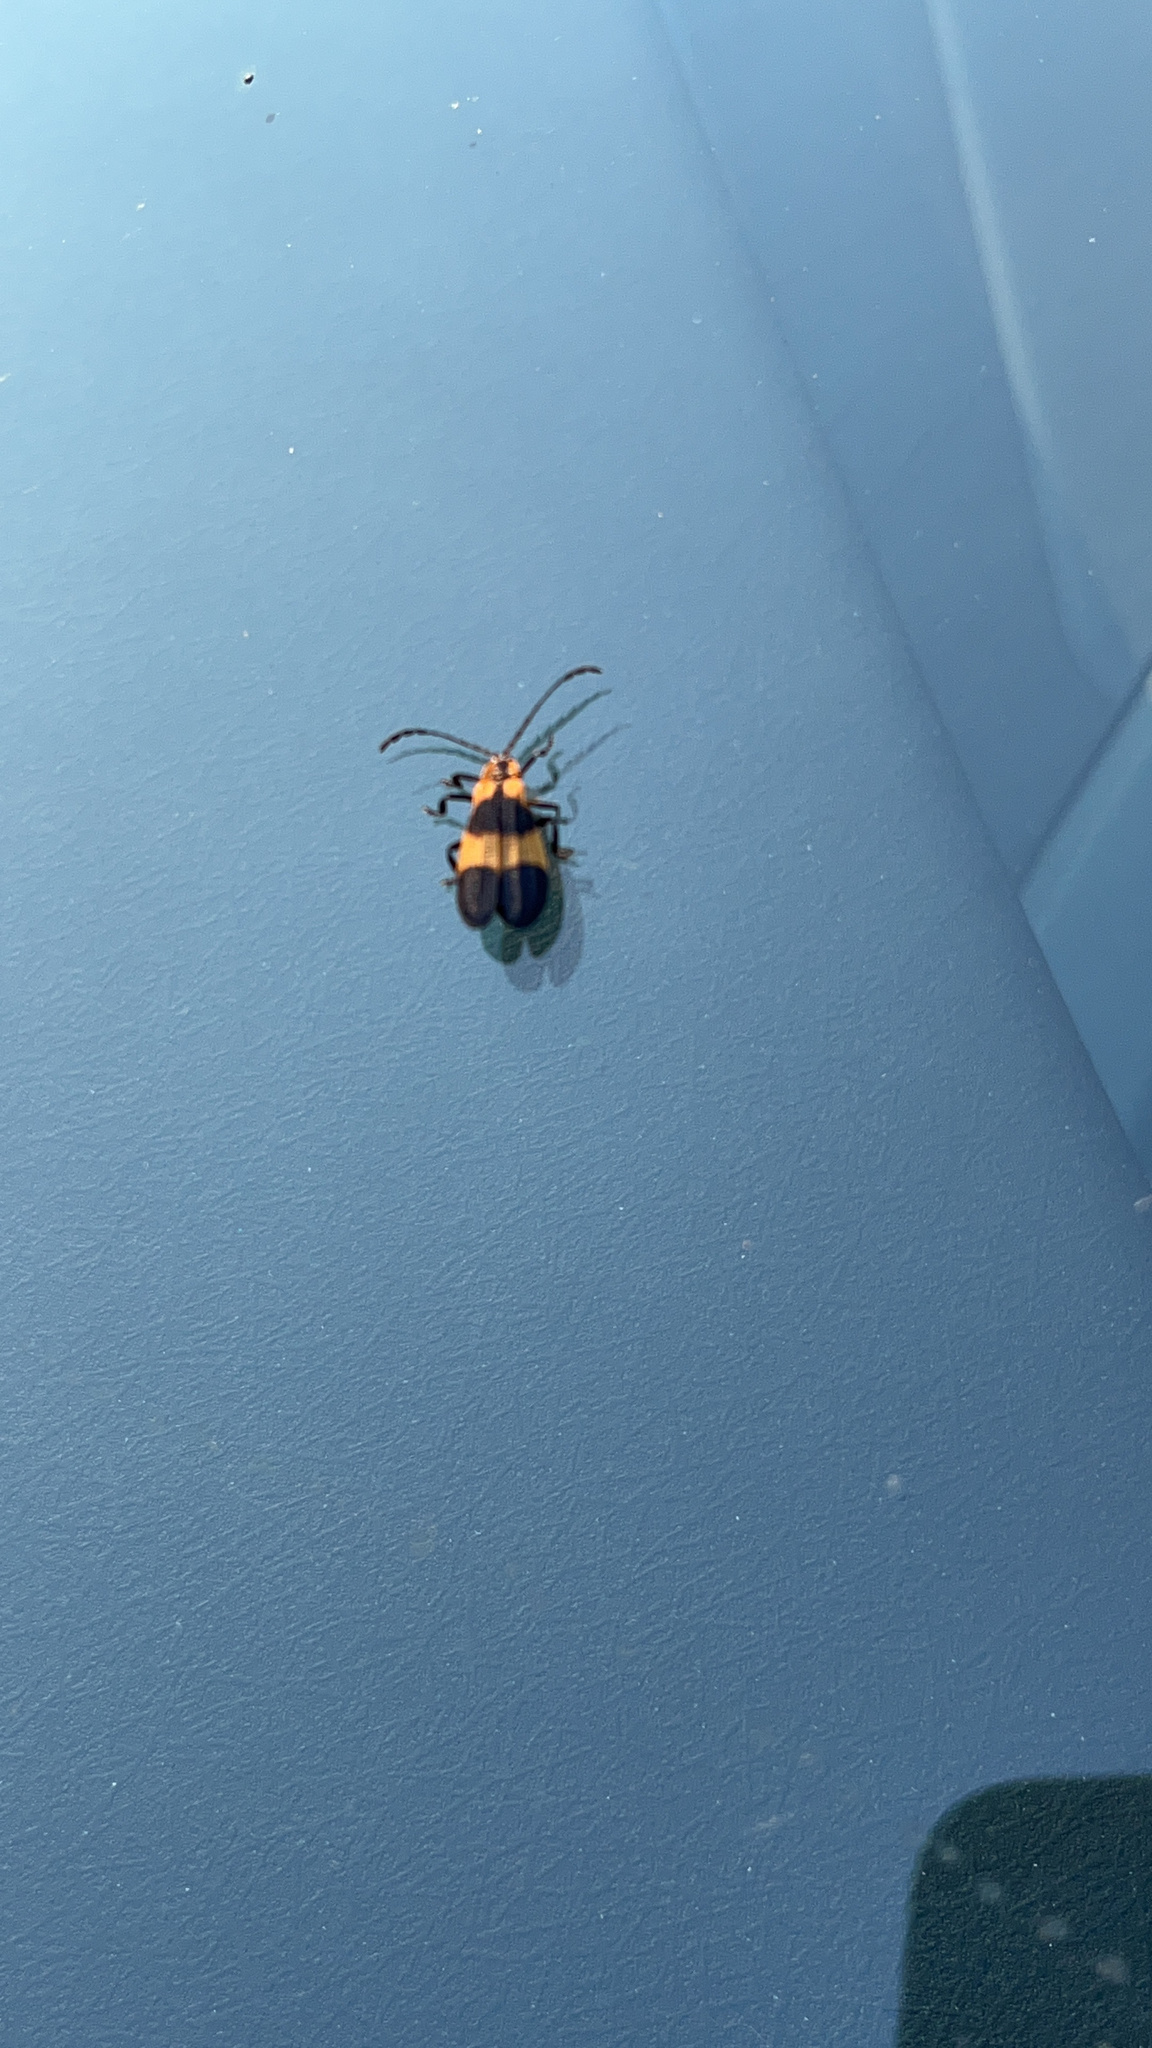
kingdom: Animalia
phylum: Arthropoda
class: Insecta
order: Coleoptera
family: Lycidae
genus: Calopteron
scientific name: Calopteron reticulatum
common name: Banded net-winged beetle
